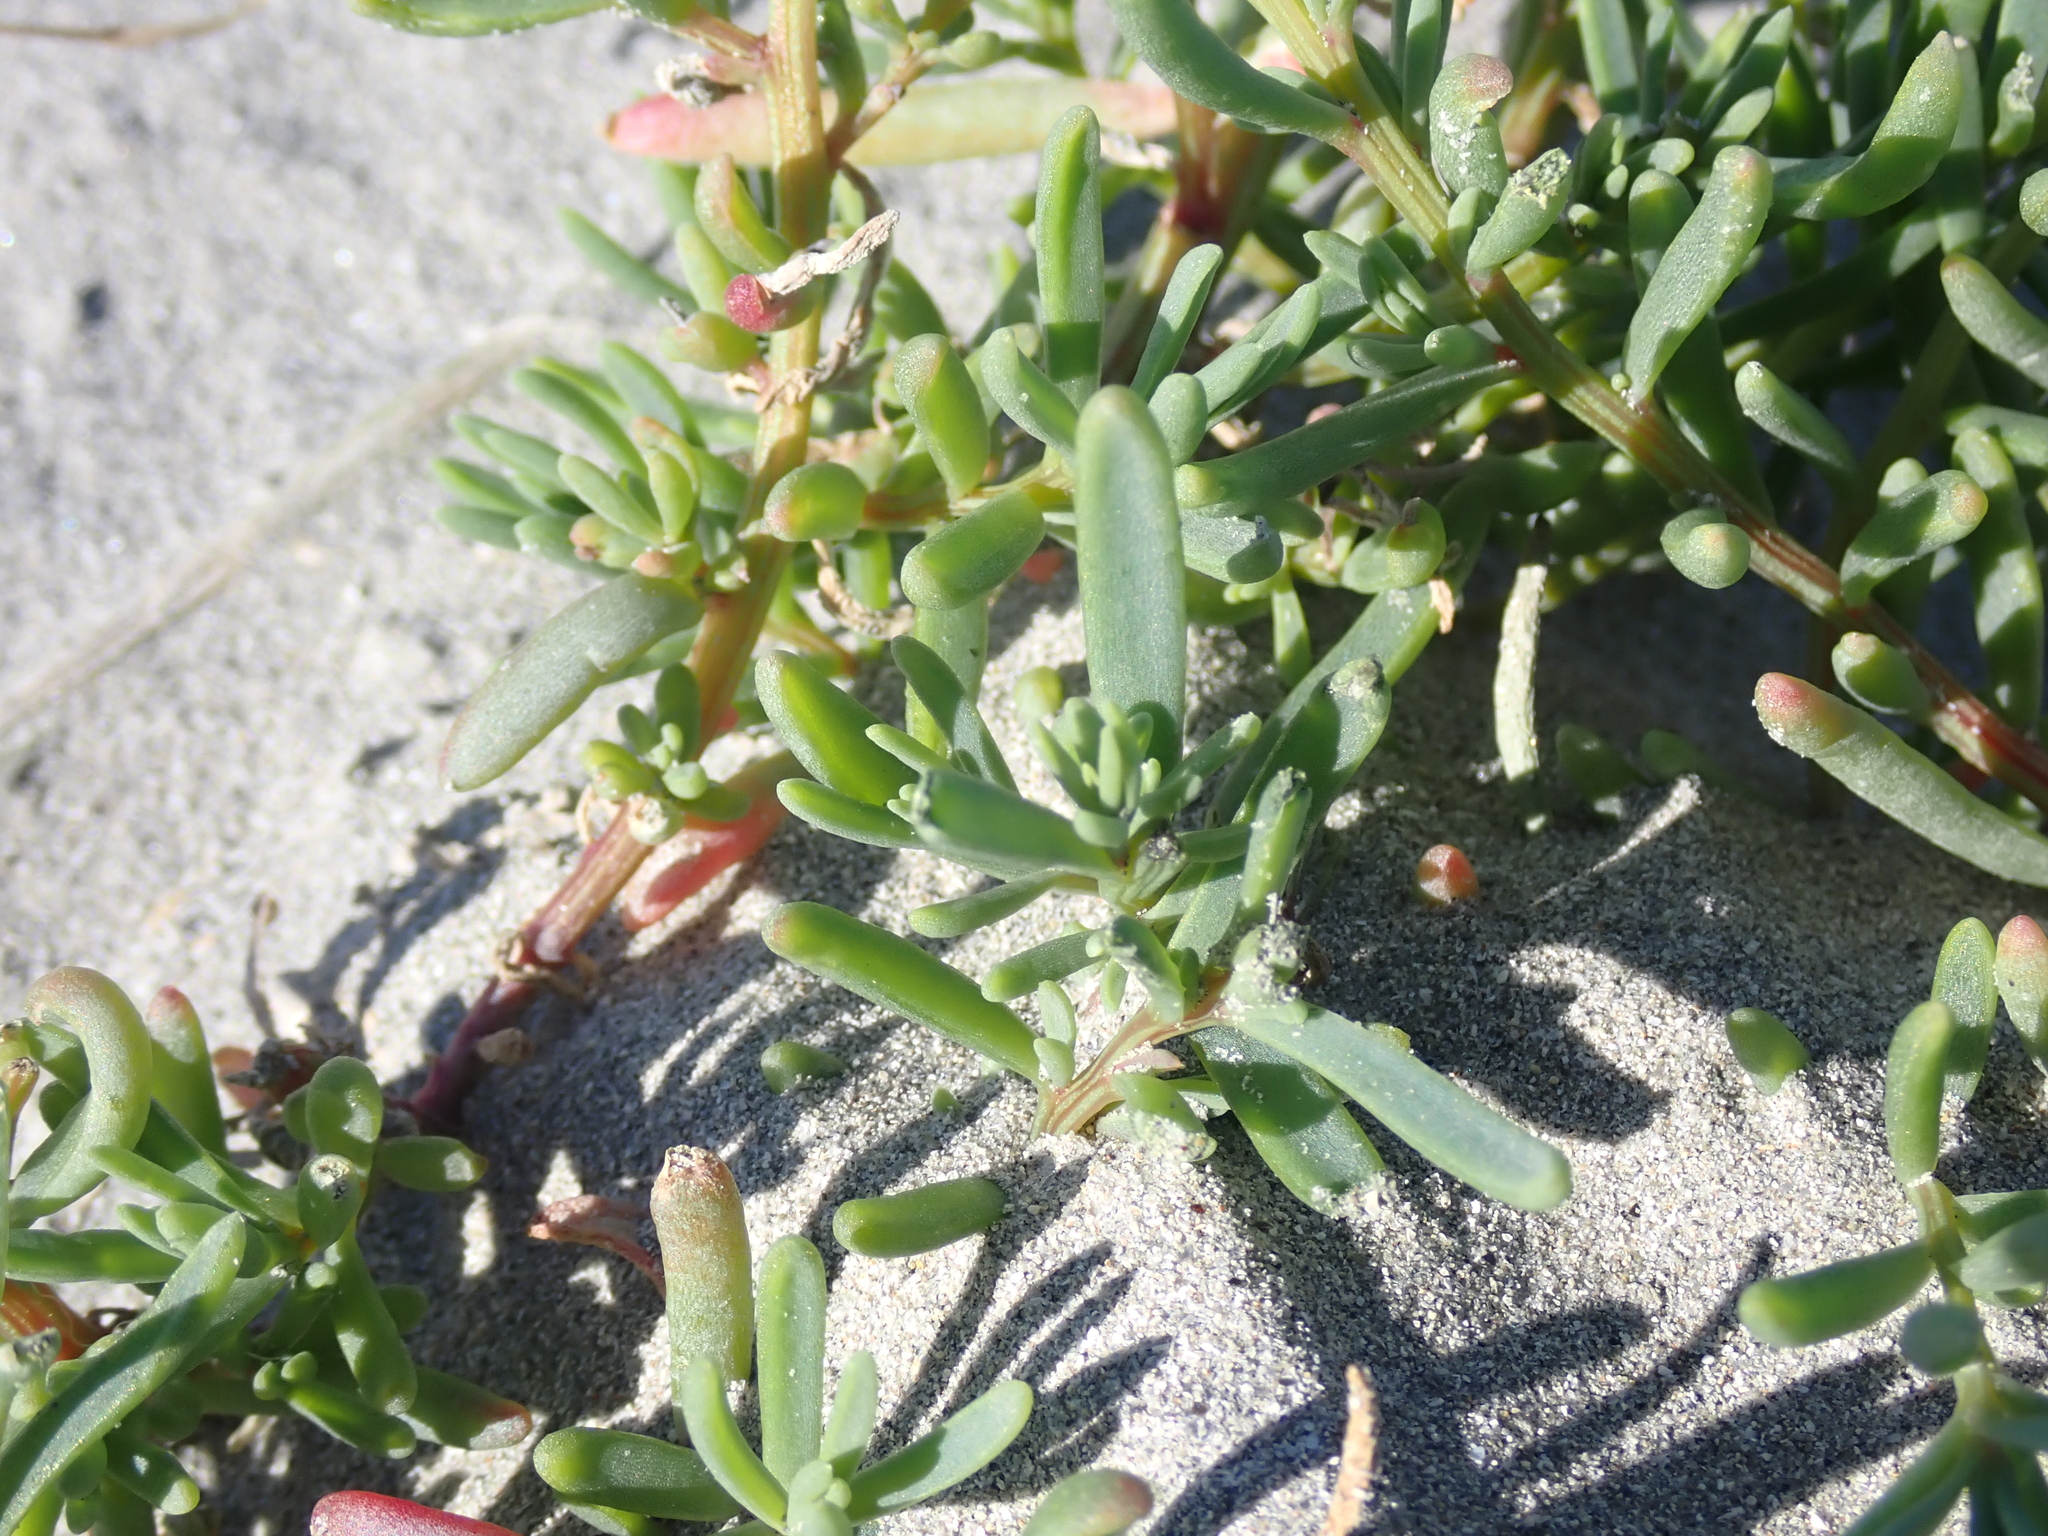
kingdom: Plantae
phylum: Tracheophyta
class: Magnoliopsida
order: Caryophyllales
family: Amaranthaceae
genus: Suaeda
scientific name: Suaeda maritima
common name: Annual sea-blite
